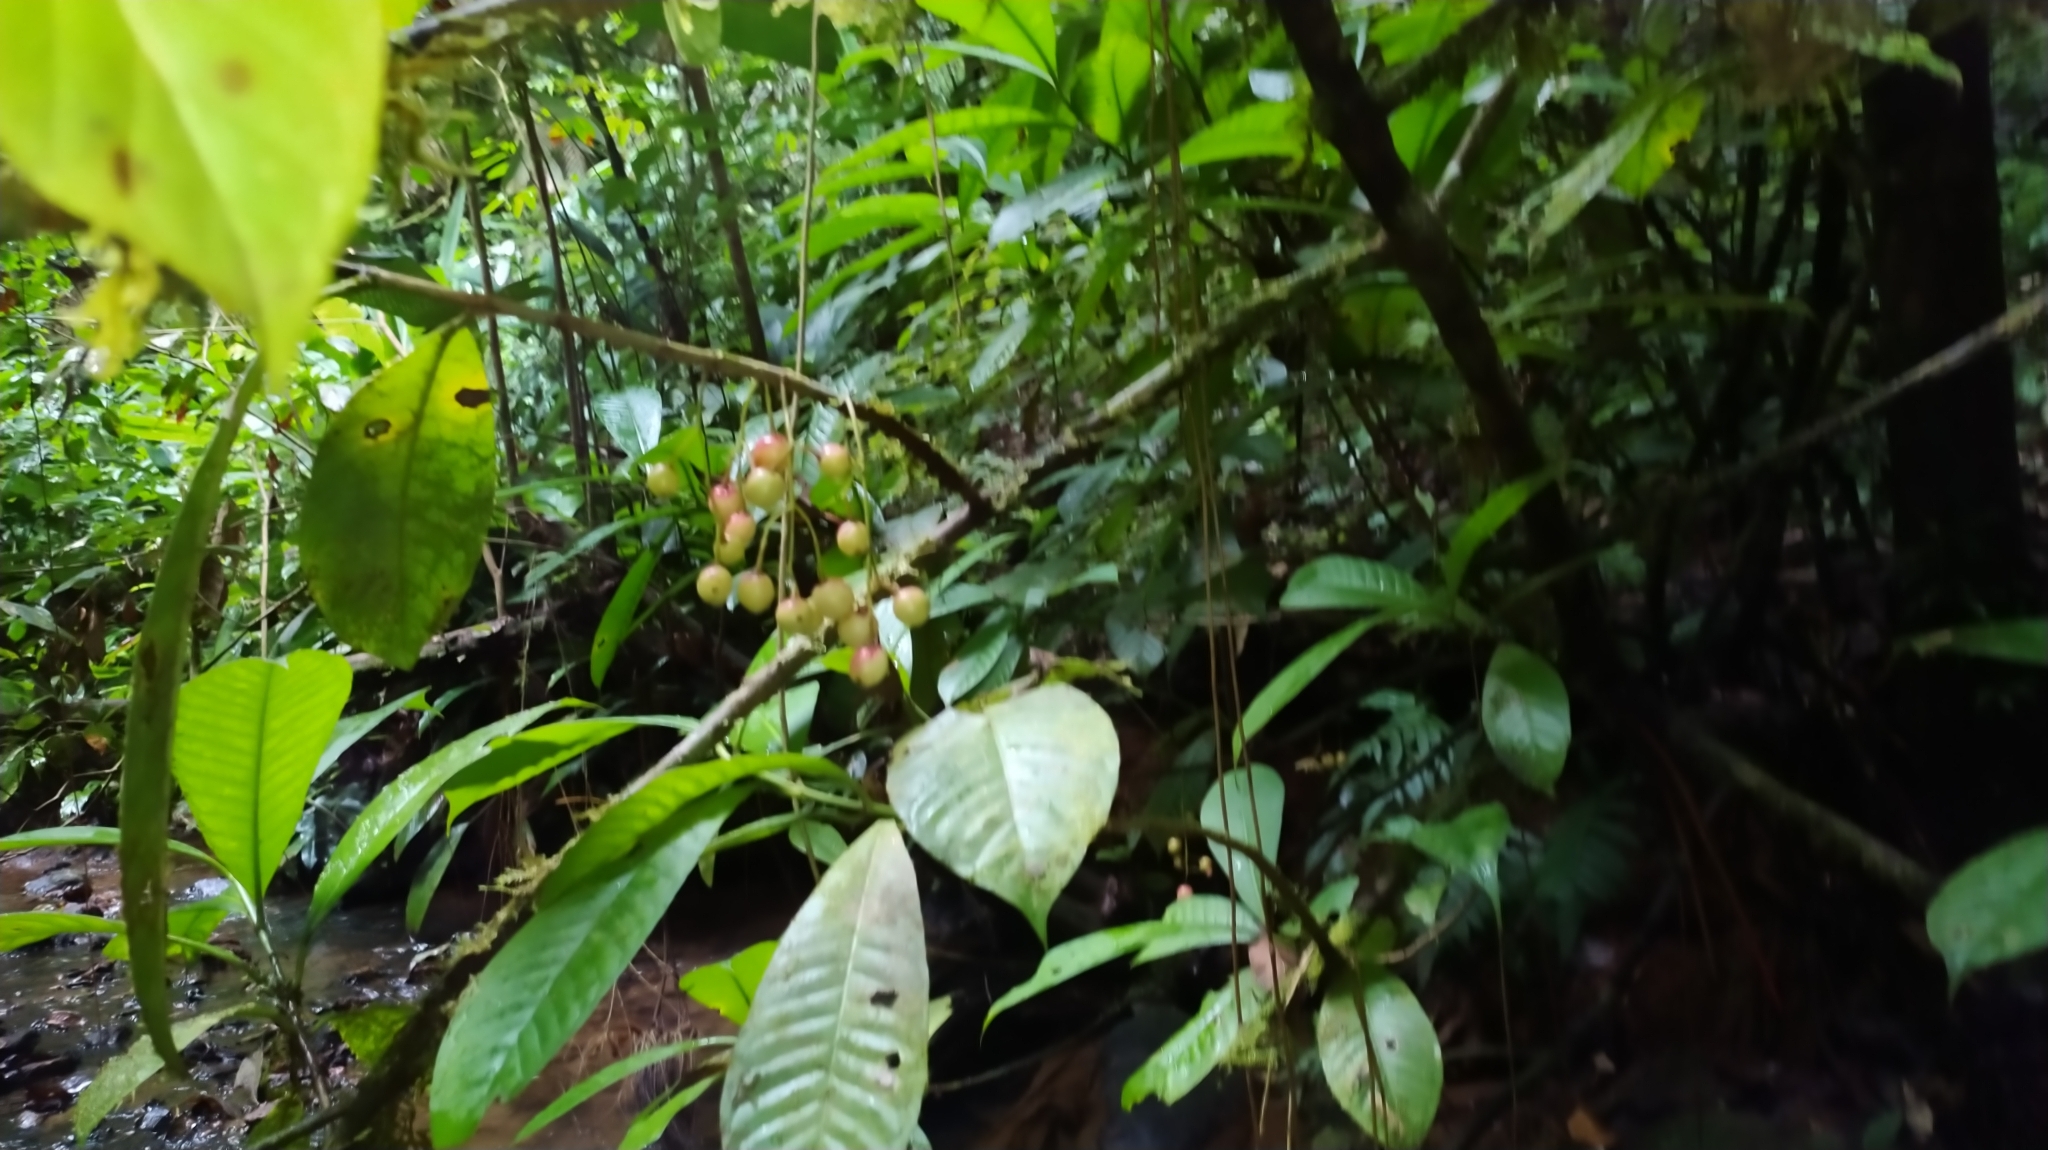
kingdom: Plantae
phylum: Tracheophyta
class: Magnoliopsida
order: Malpighiales
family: Clusiaceae
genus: Chrysochlamys
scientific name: Chrysochlamys membranacea
